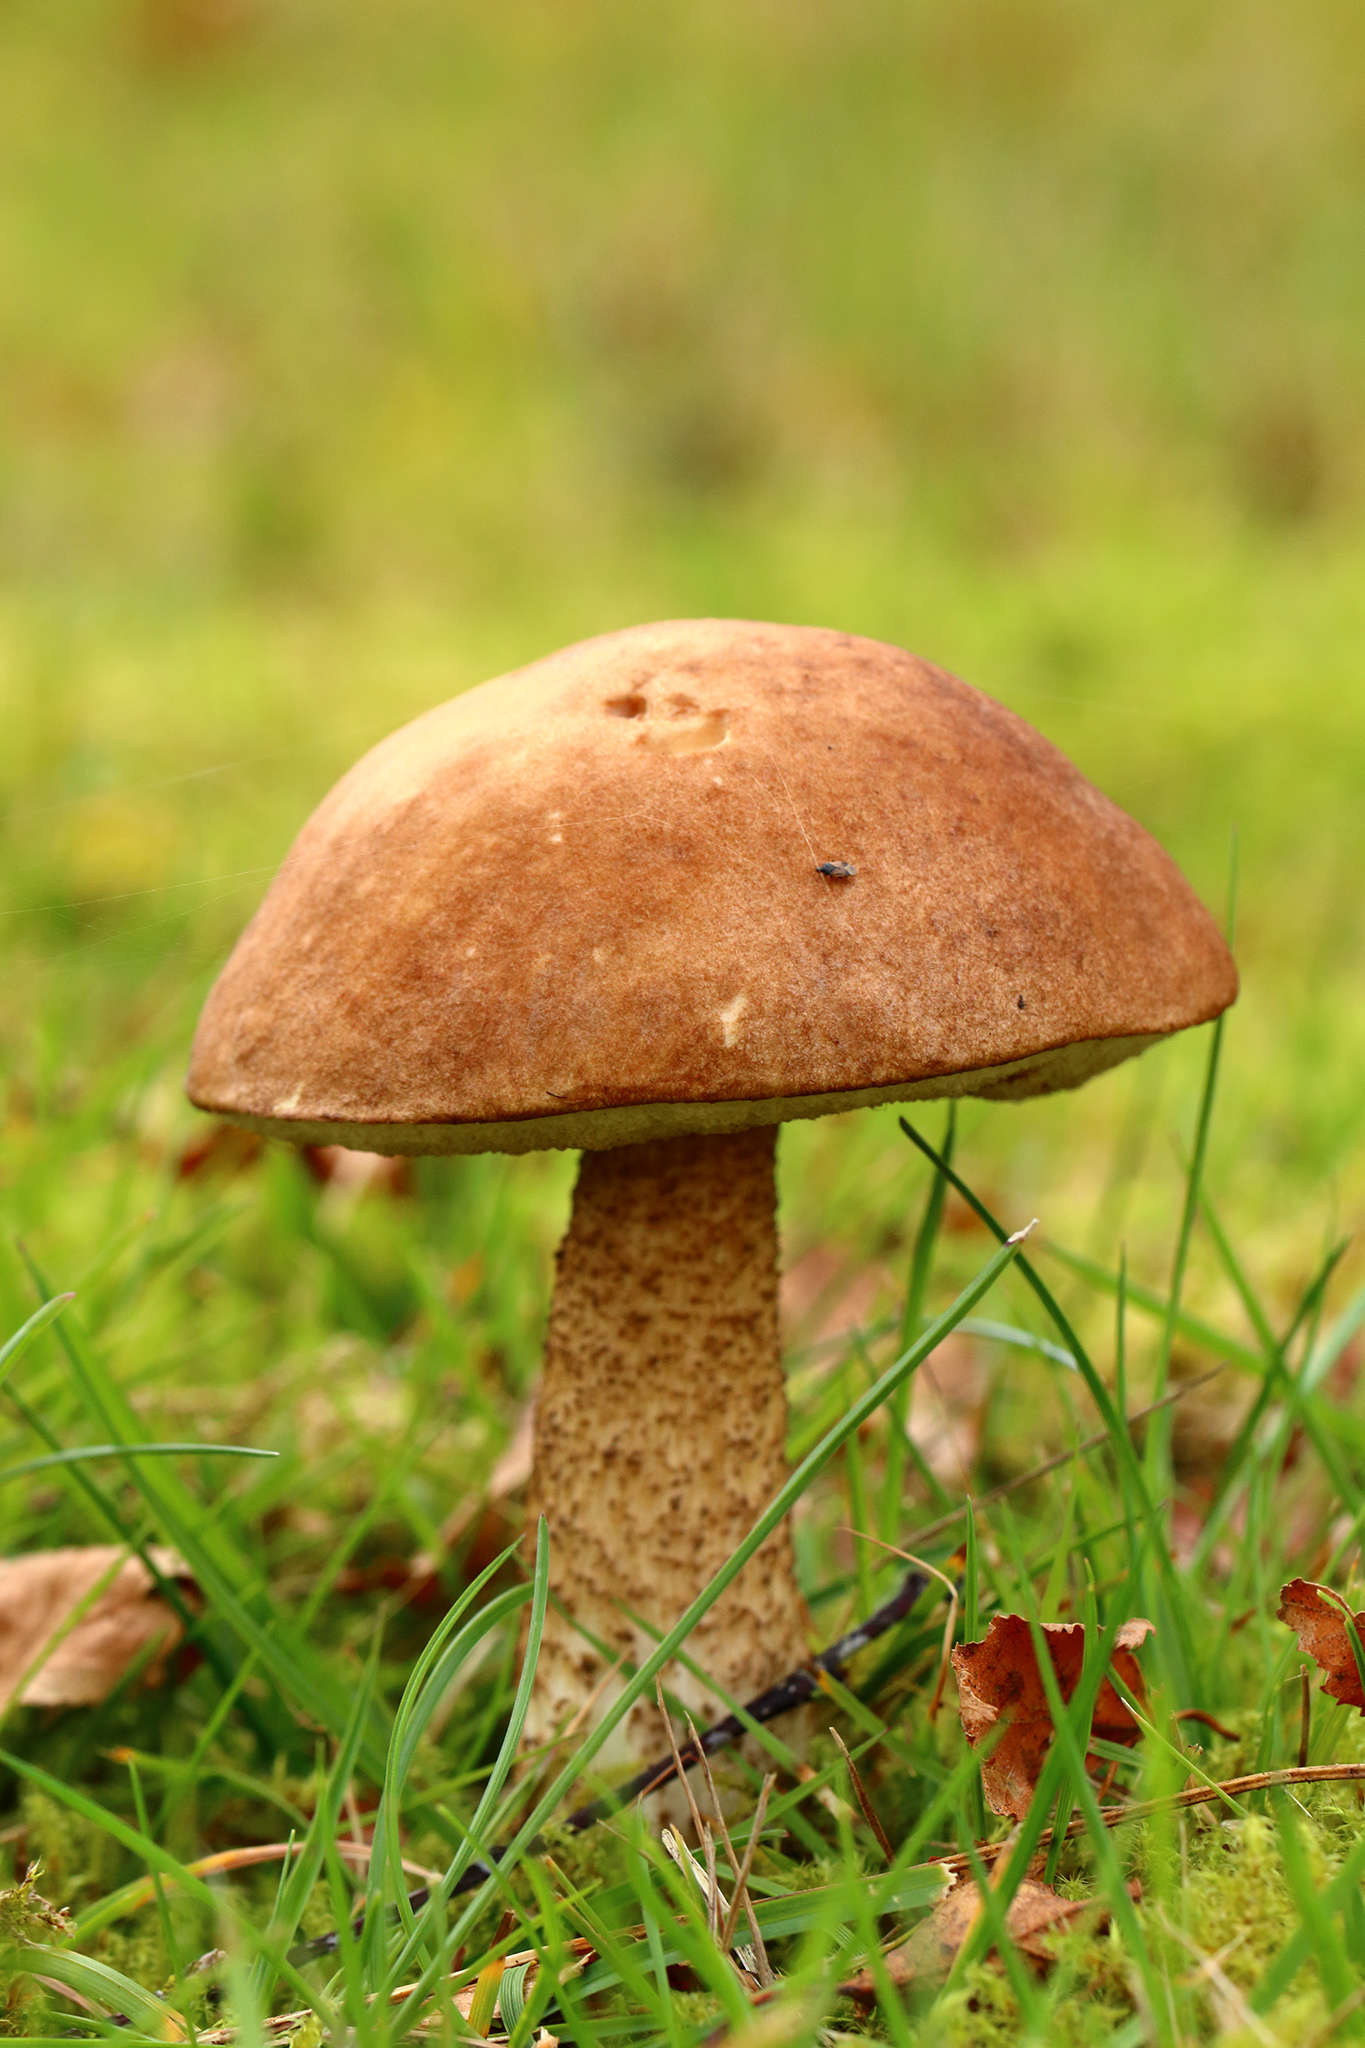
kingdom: Fungi
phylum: Basidiomycota
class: Agaricomycetes
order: Boletales
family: Boletaceae
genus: Leccinum
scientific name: Leccinum scabrum
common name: Blushing bolete
